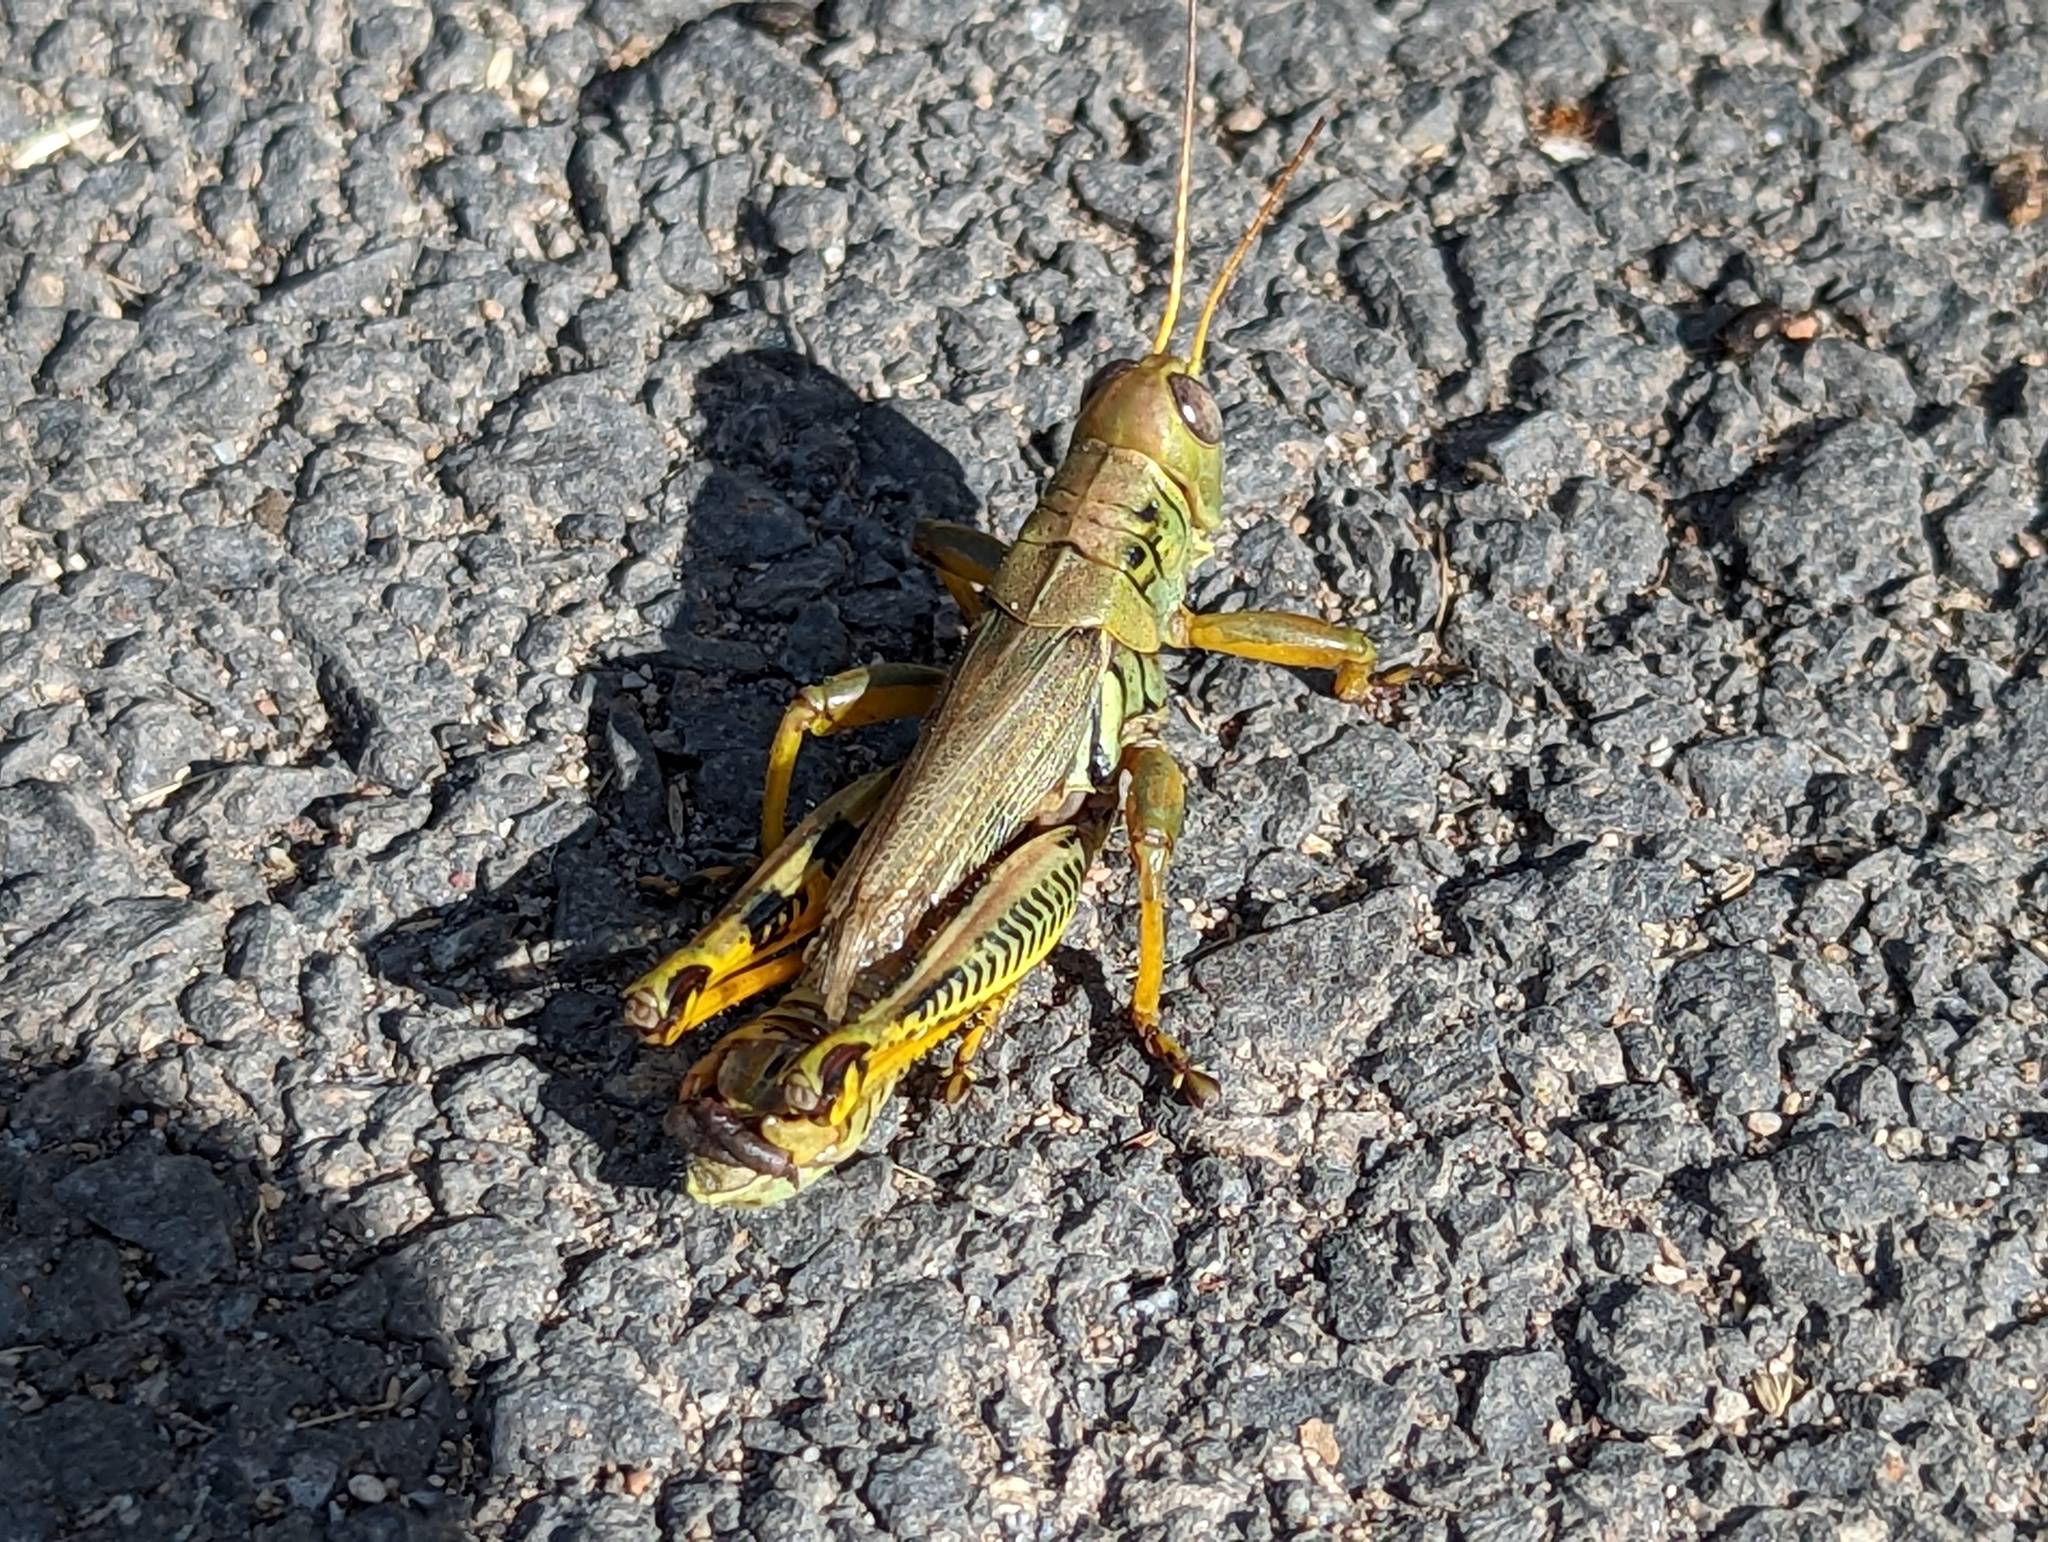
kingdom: Animalia
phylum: Arthropoda
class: Insecta
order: Orthoptera
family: Acrididae
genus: Melanoplus
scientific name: Melanoplus differentialis
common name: Differential grasshopper
